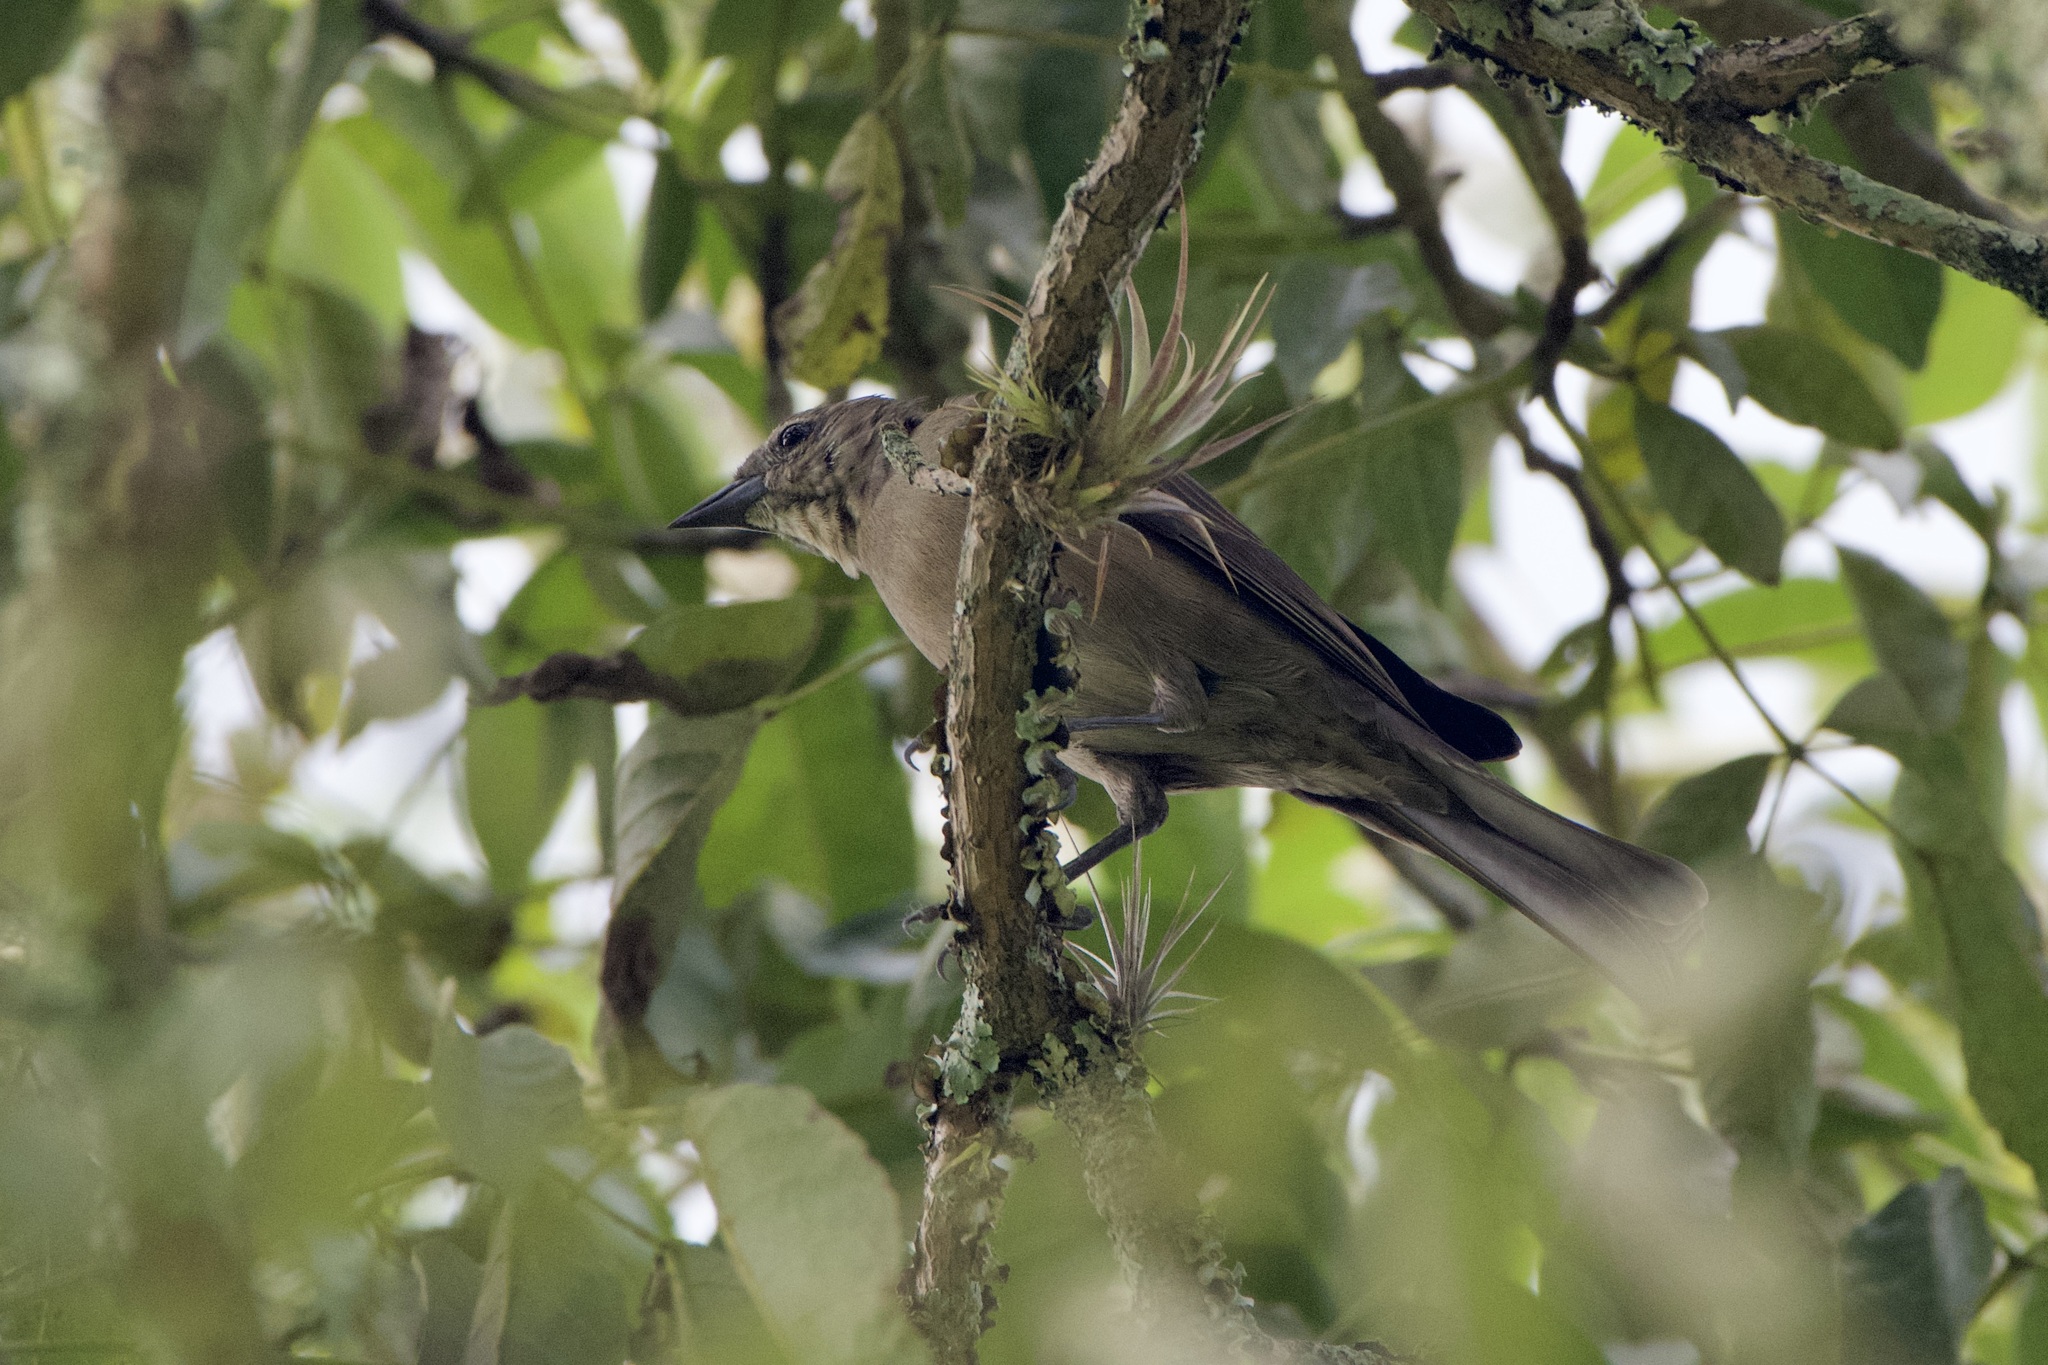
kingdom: Animalia
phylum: Chordata
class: Aves
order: Passeriformes
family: Icteridae
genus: Molothrus
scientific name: Molothrus bonariensis
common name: Shiny cowbird
